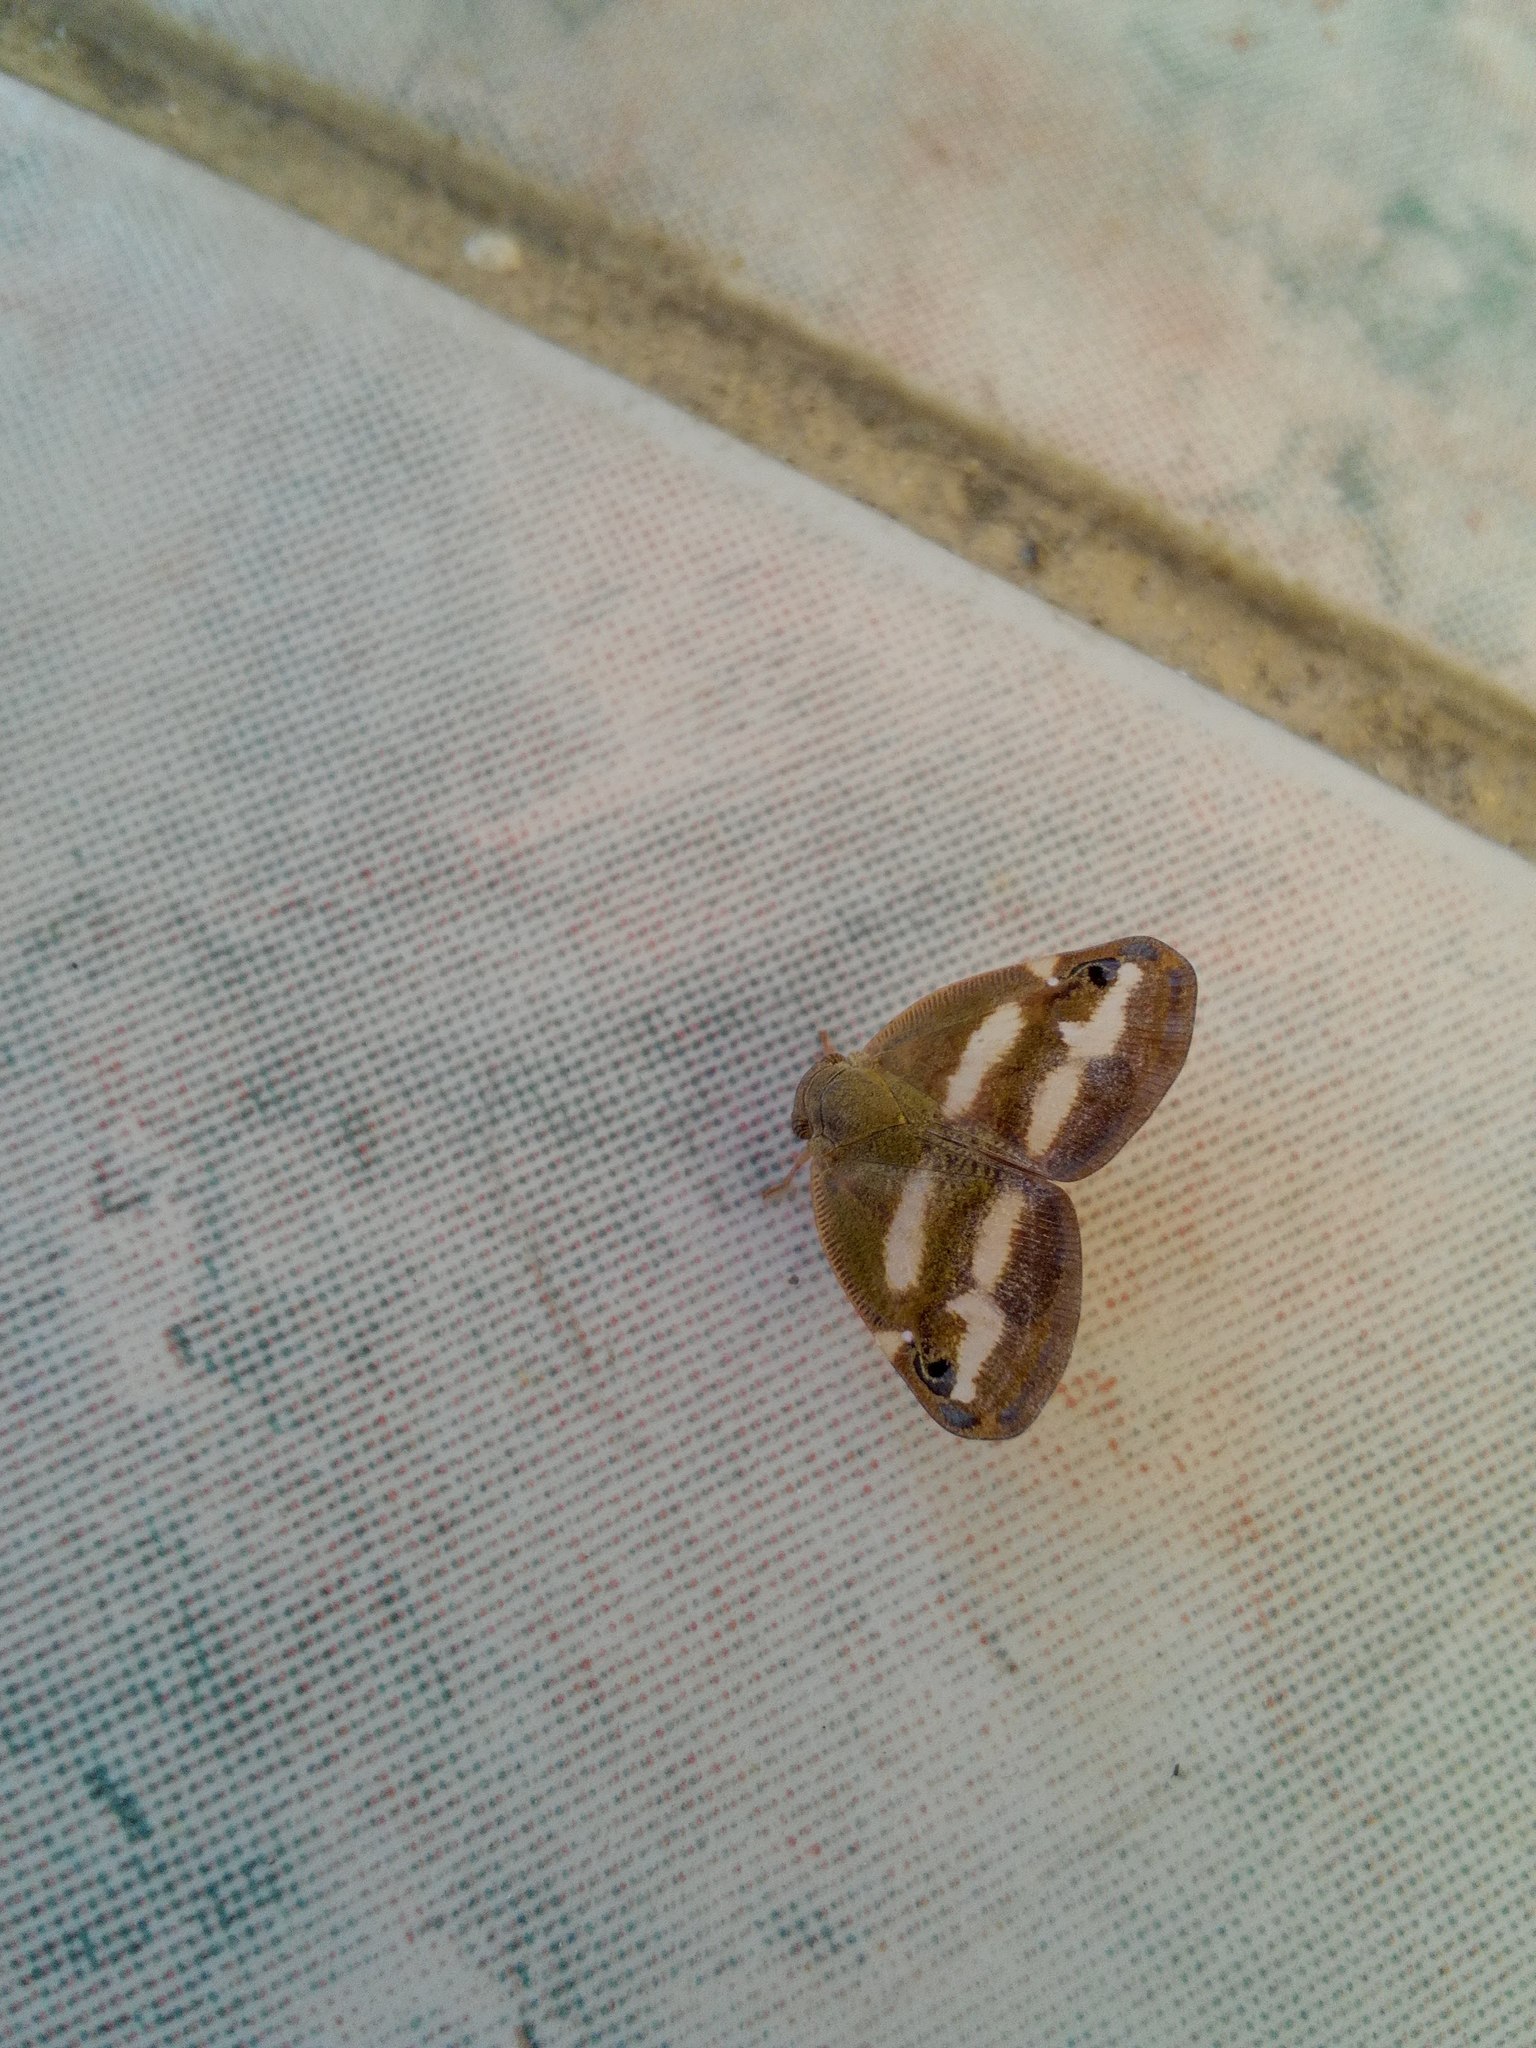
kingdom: Animalia
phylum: Arthropoda
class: Insecta
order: Hemiptera
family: Ricaniidae
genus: Orosanga
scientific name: Orosanga japonica
